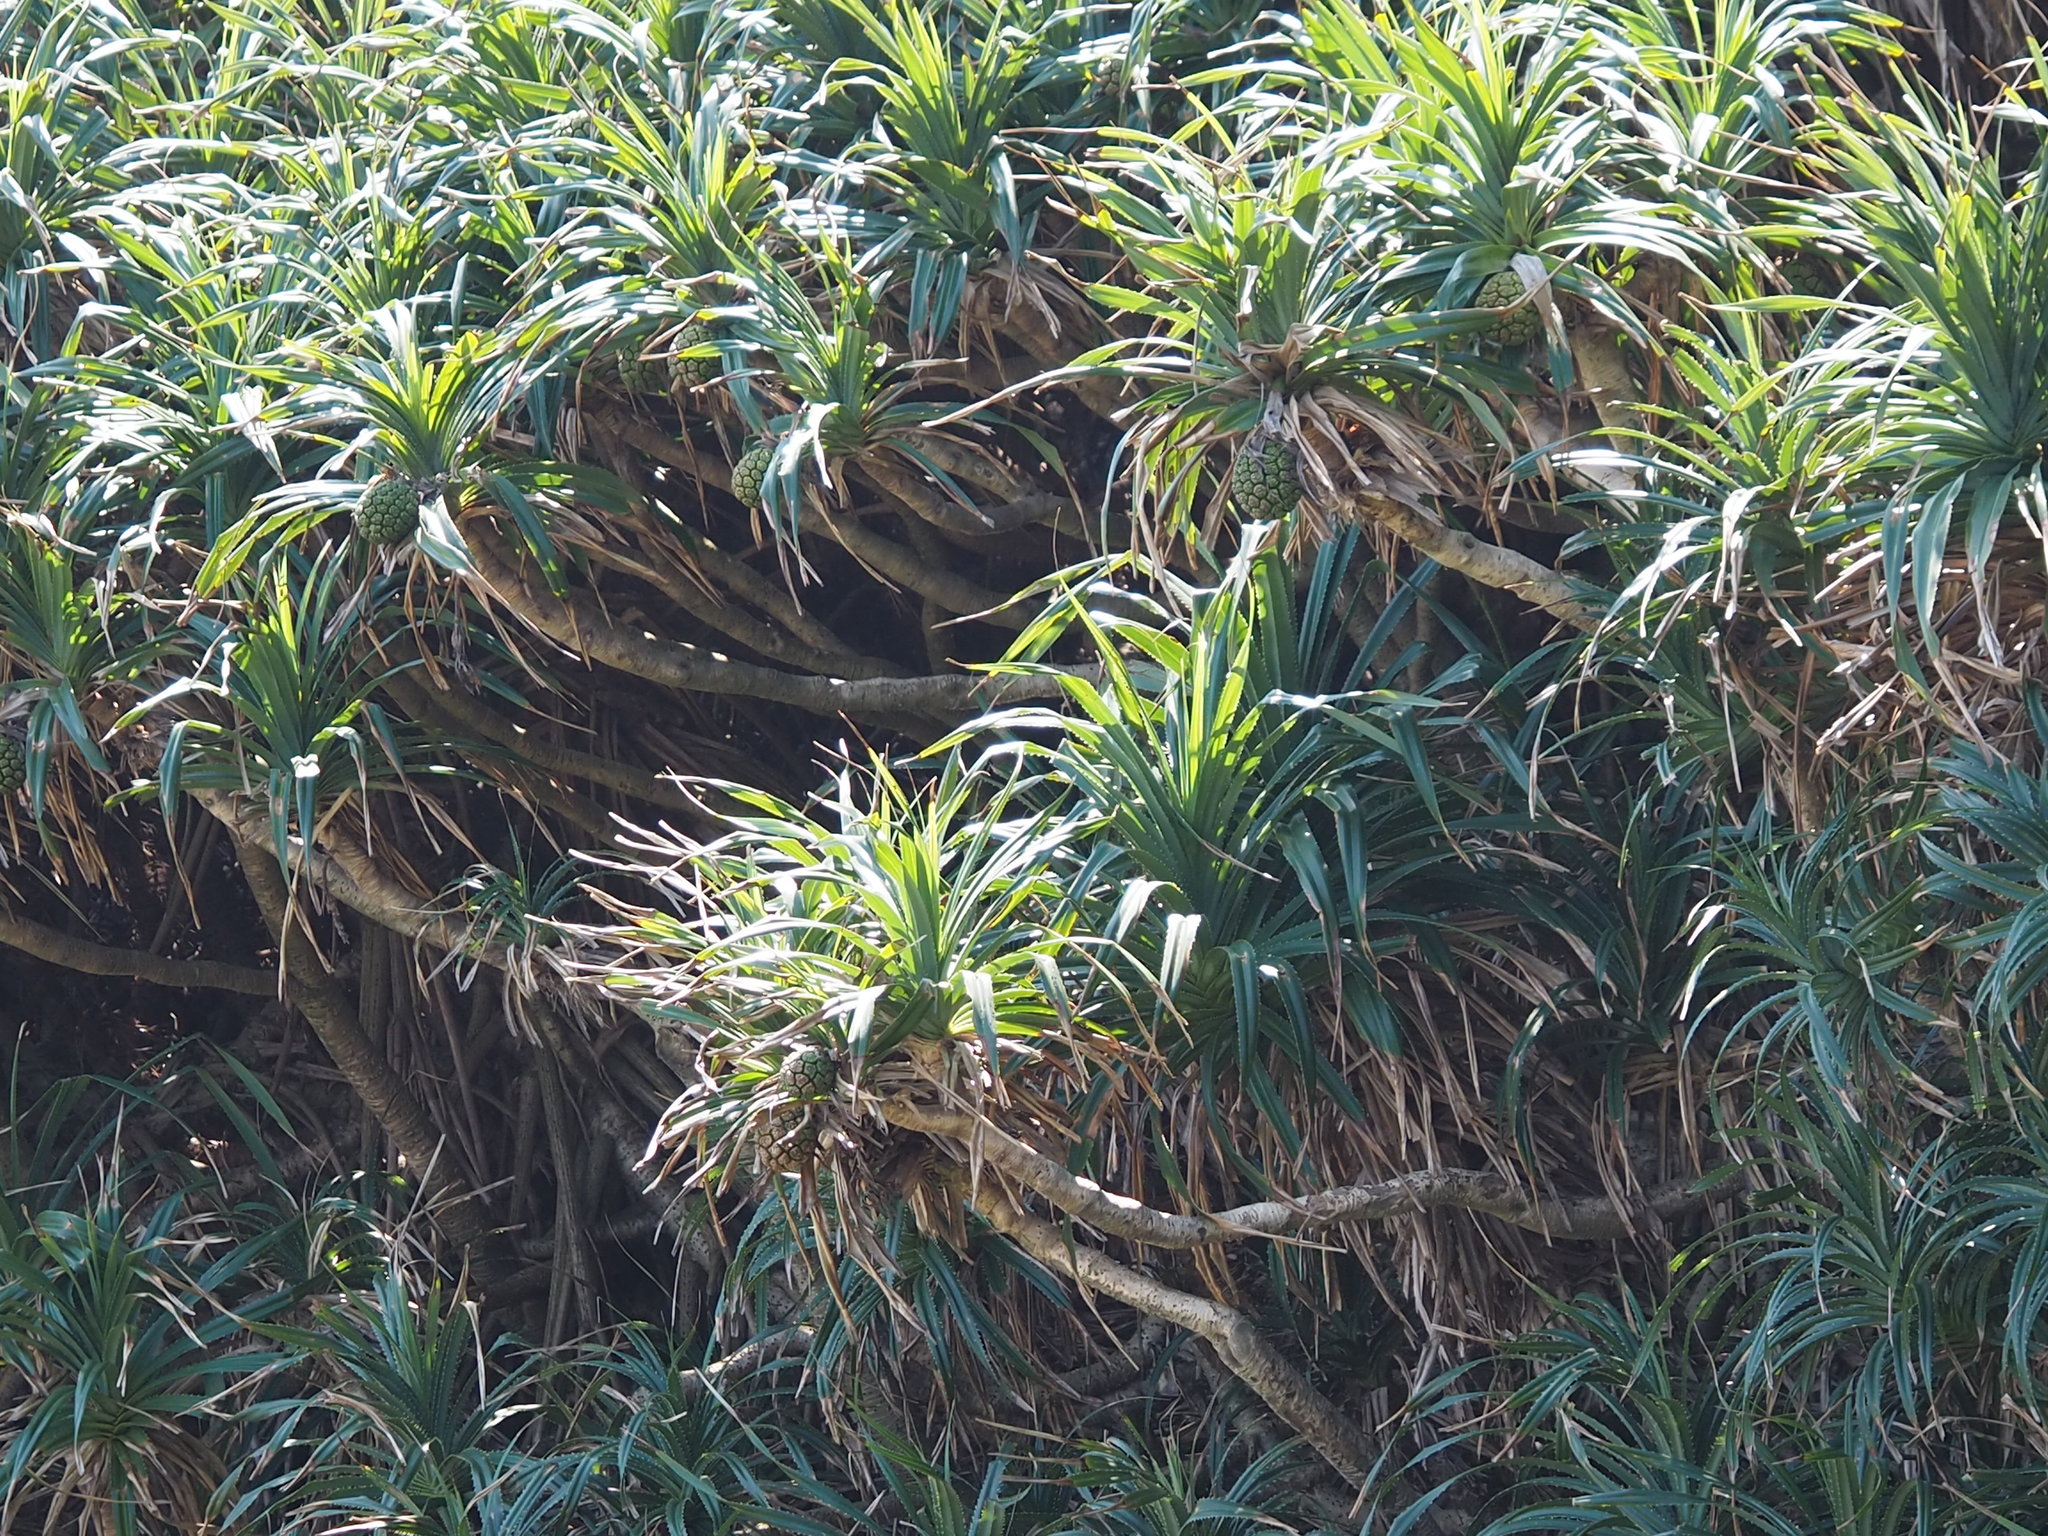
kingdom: Plantae
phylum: Tracheophyta
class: Liliopsida
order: Pandanales
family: Pandanaceae
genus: Pandanus
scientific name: Pandanus odorifer
